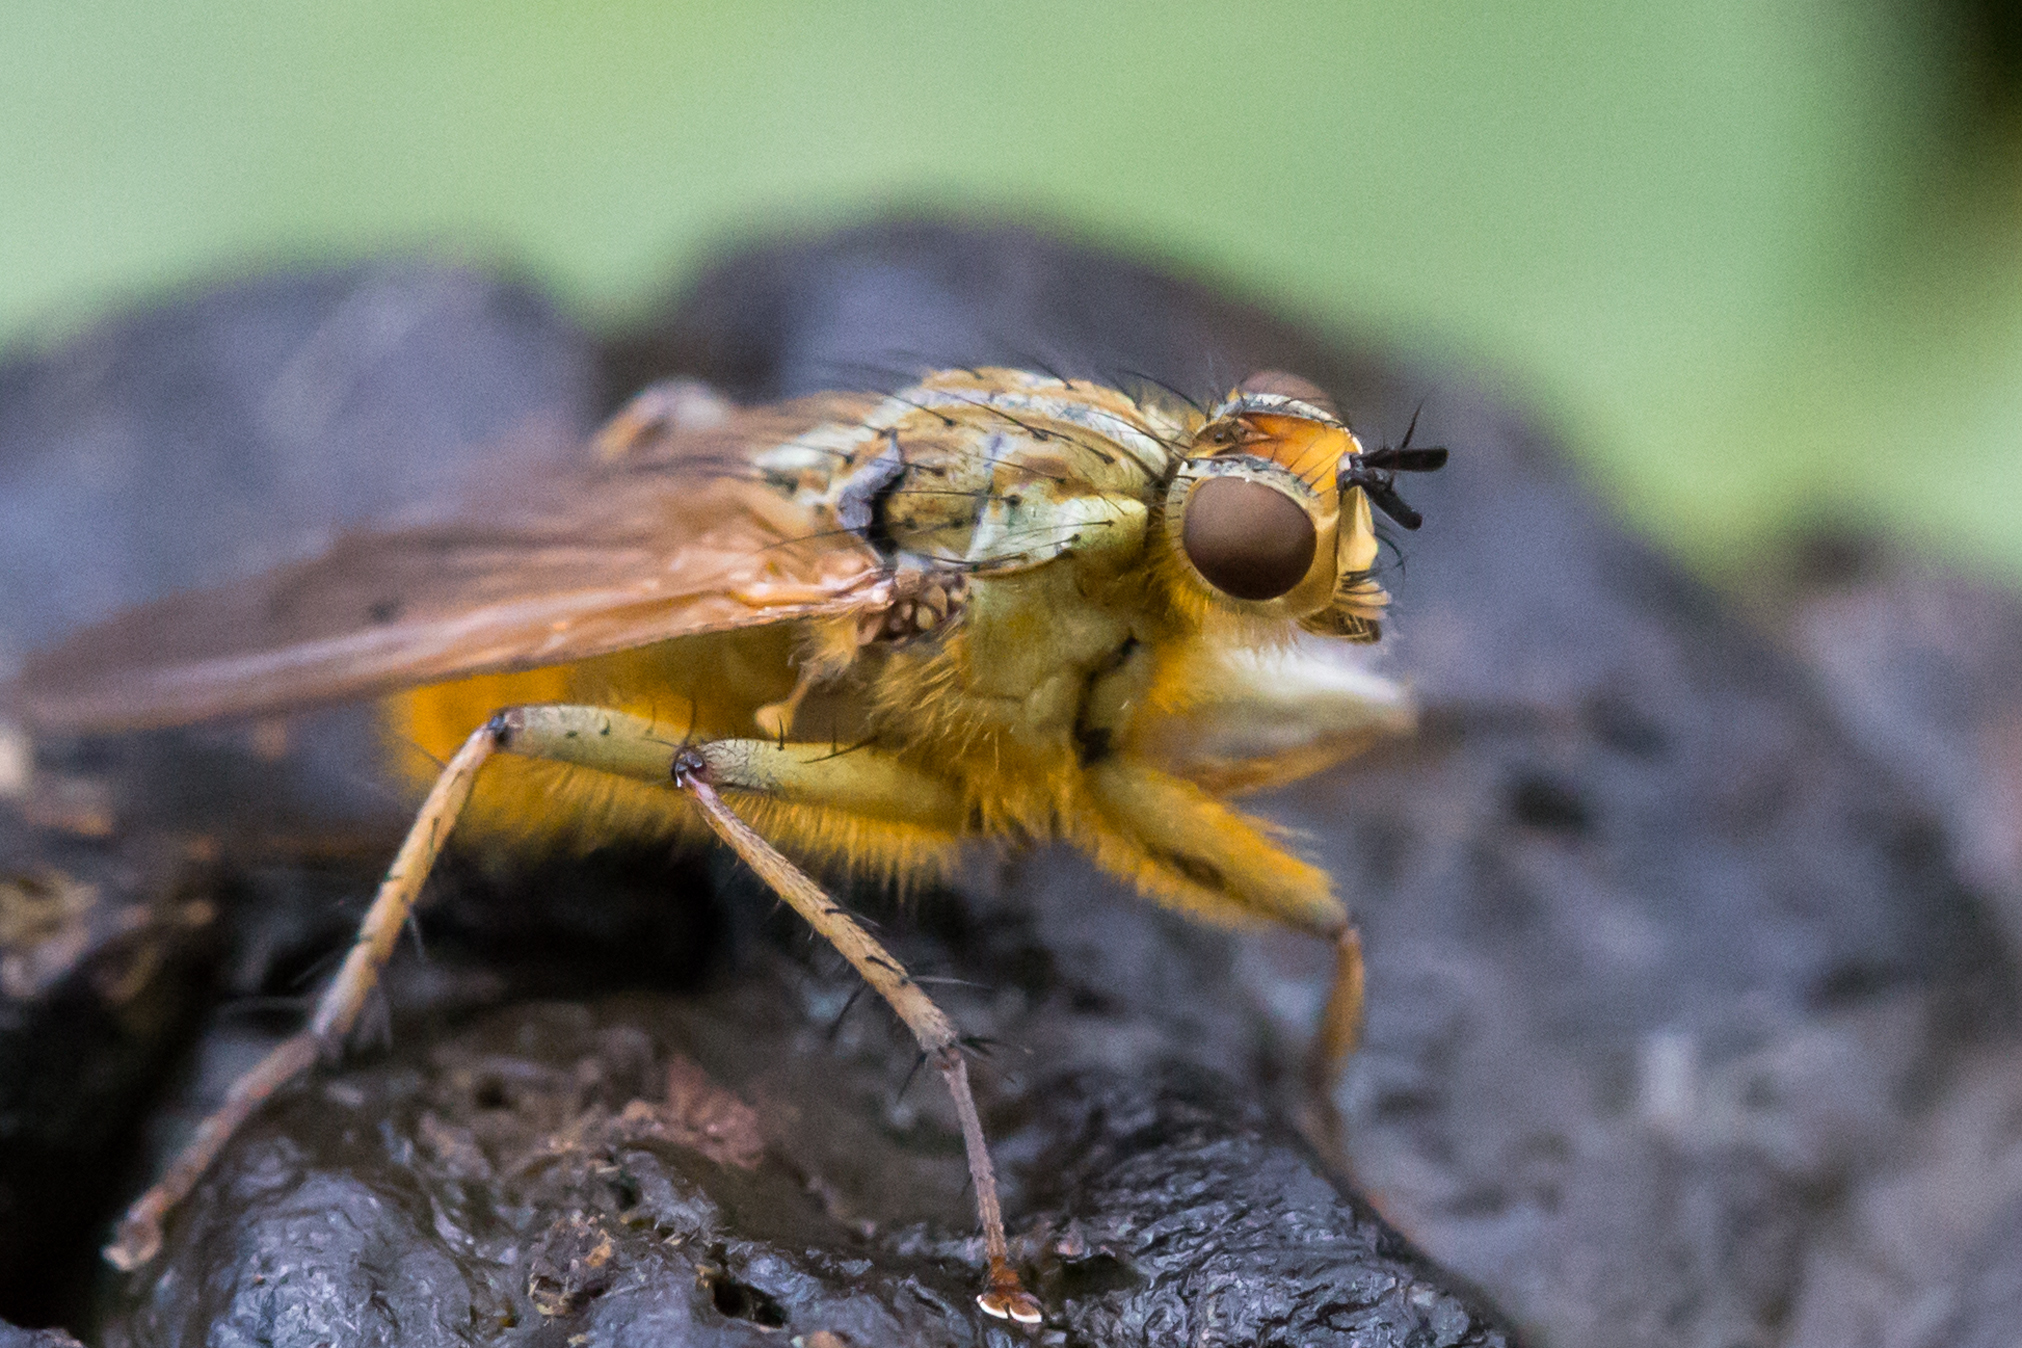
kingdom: Animalia
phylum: Arthropoda
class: Insecta
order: Diptera
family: Scathophagidae
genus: Scathophaga
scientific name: Scathophaga stercoraria
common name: Yellow dung fly
